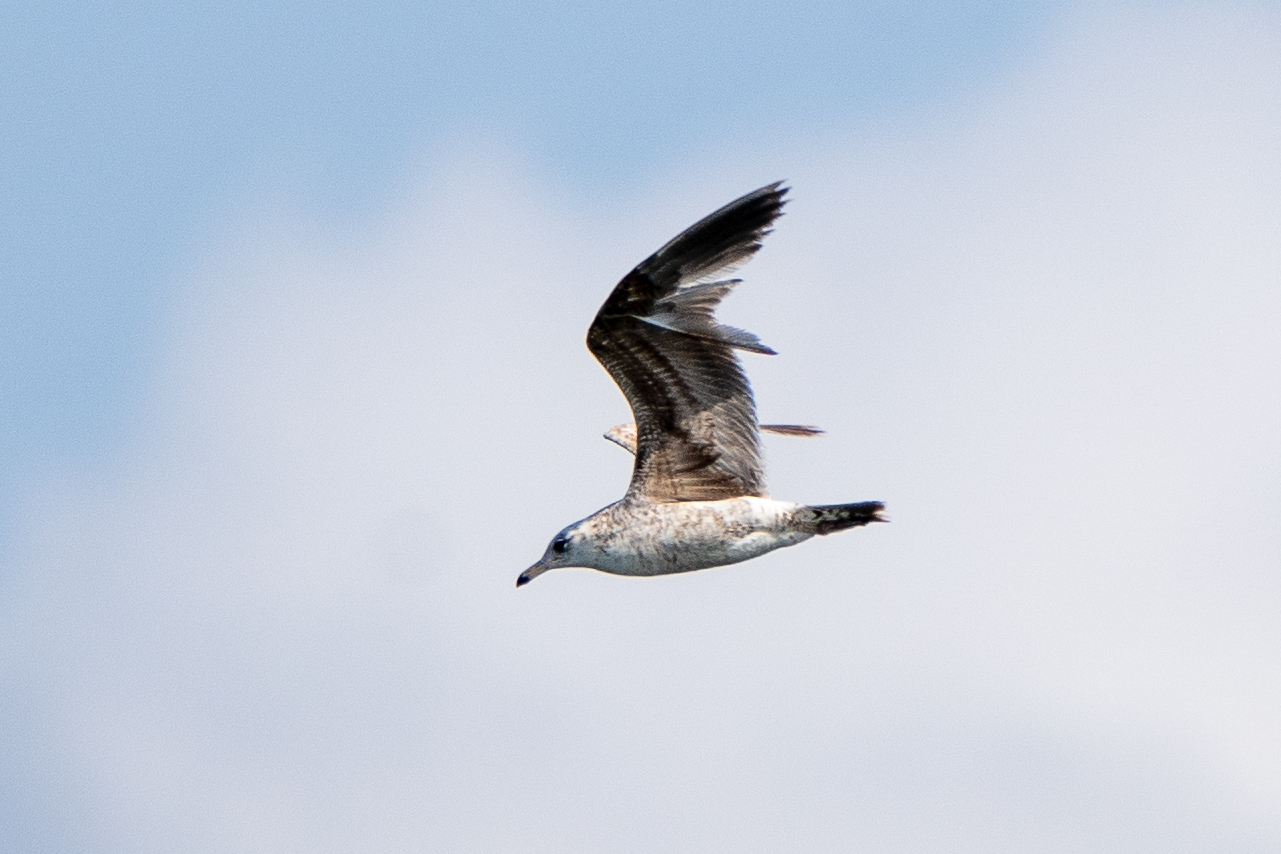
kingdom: Animalia
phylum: Chordata
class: Aves
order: Charadriiformes
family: Laridae
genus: Larus
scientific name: Larus californicus
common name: California gull
